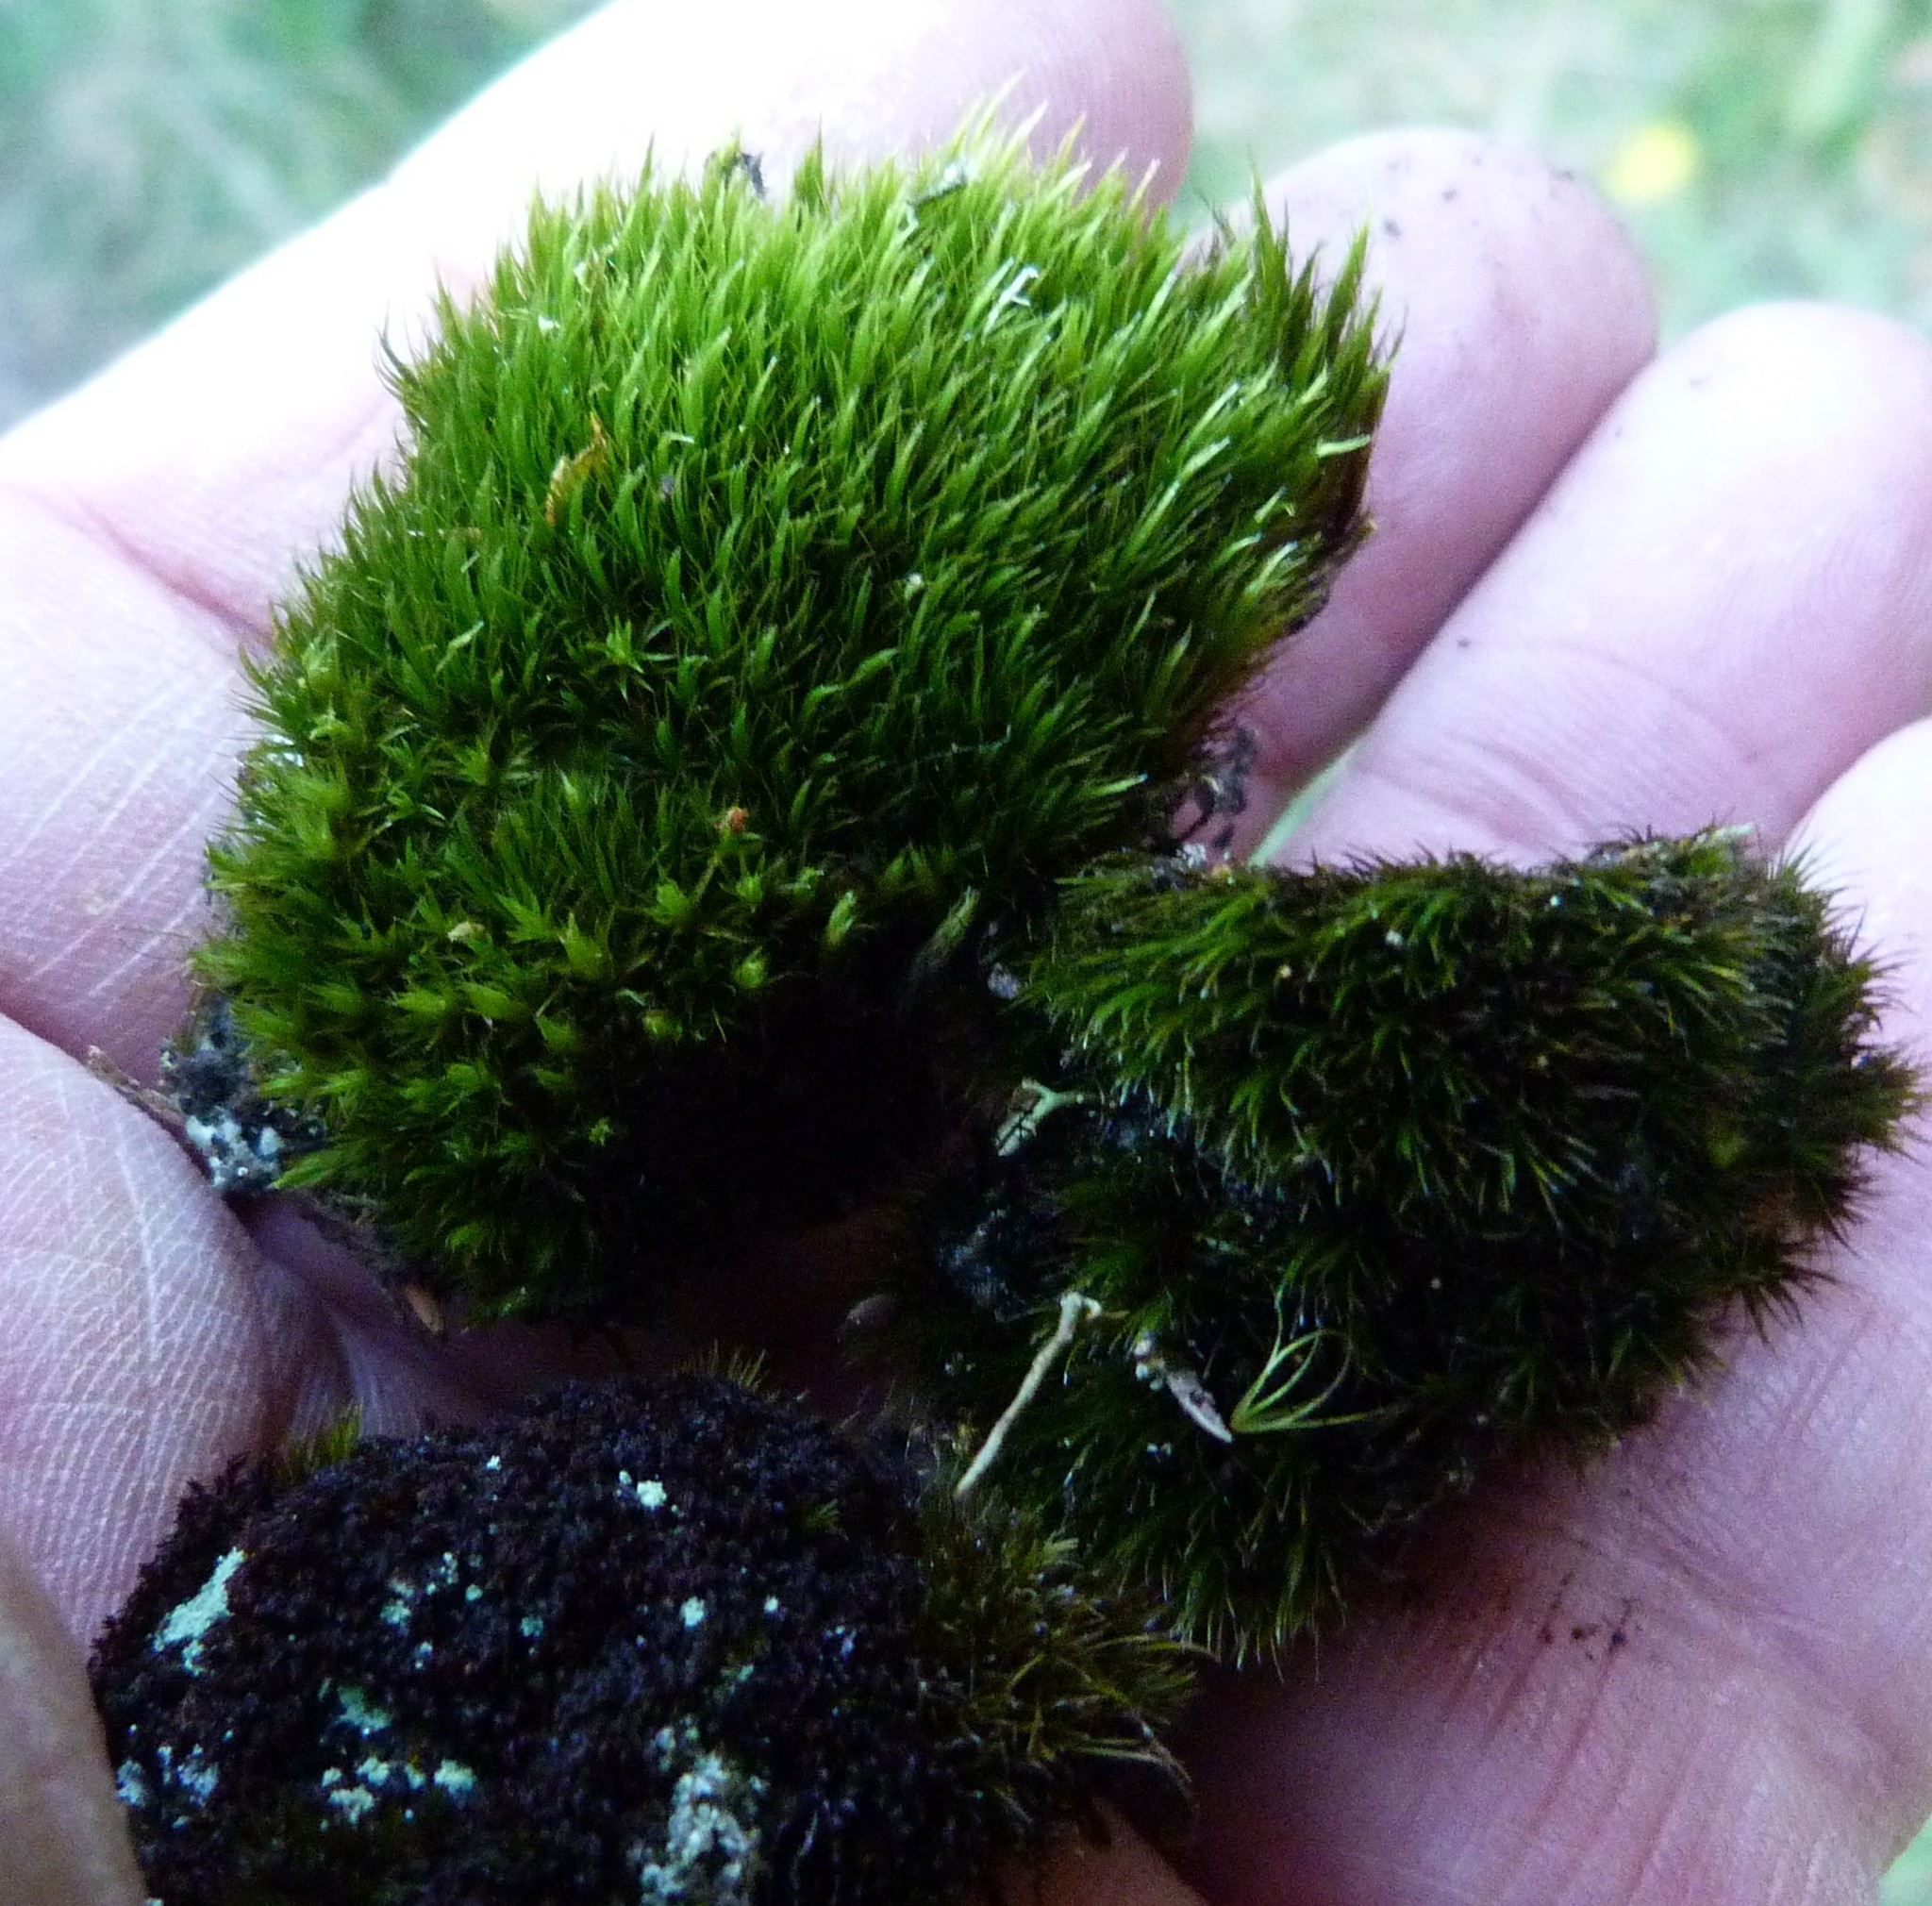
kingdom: Plantae
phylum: Bryophyta
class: Bryopsida
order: Dicranales
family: Leucobryaceae
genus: Campylopus
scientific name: Campylopus clavatus
